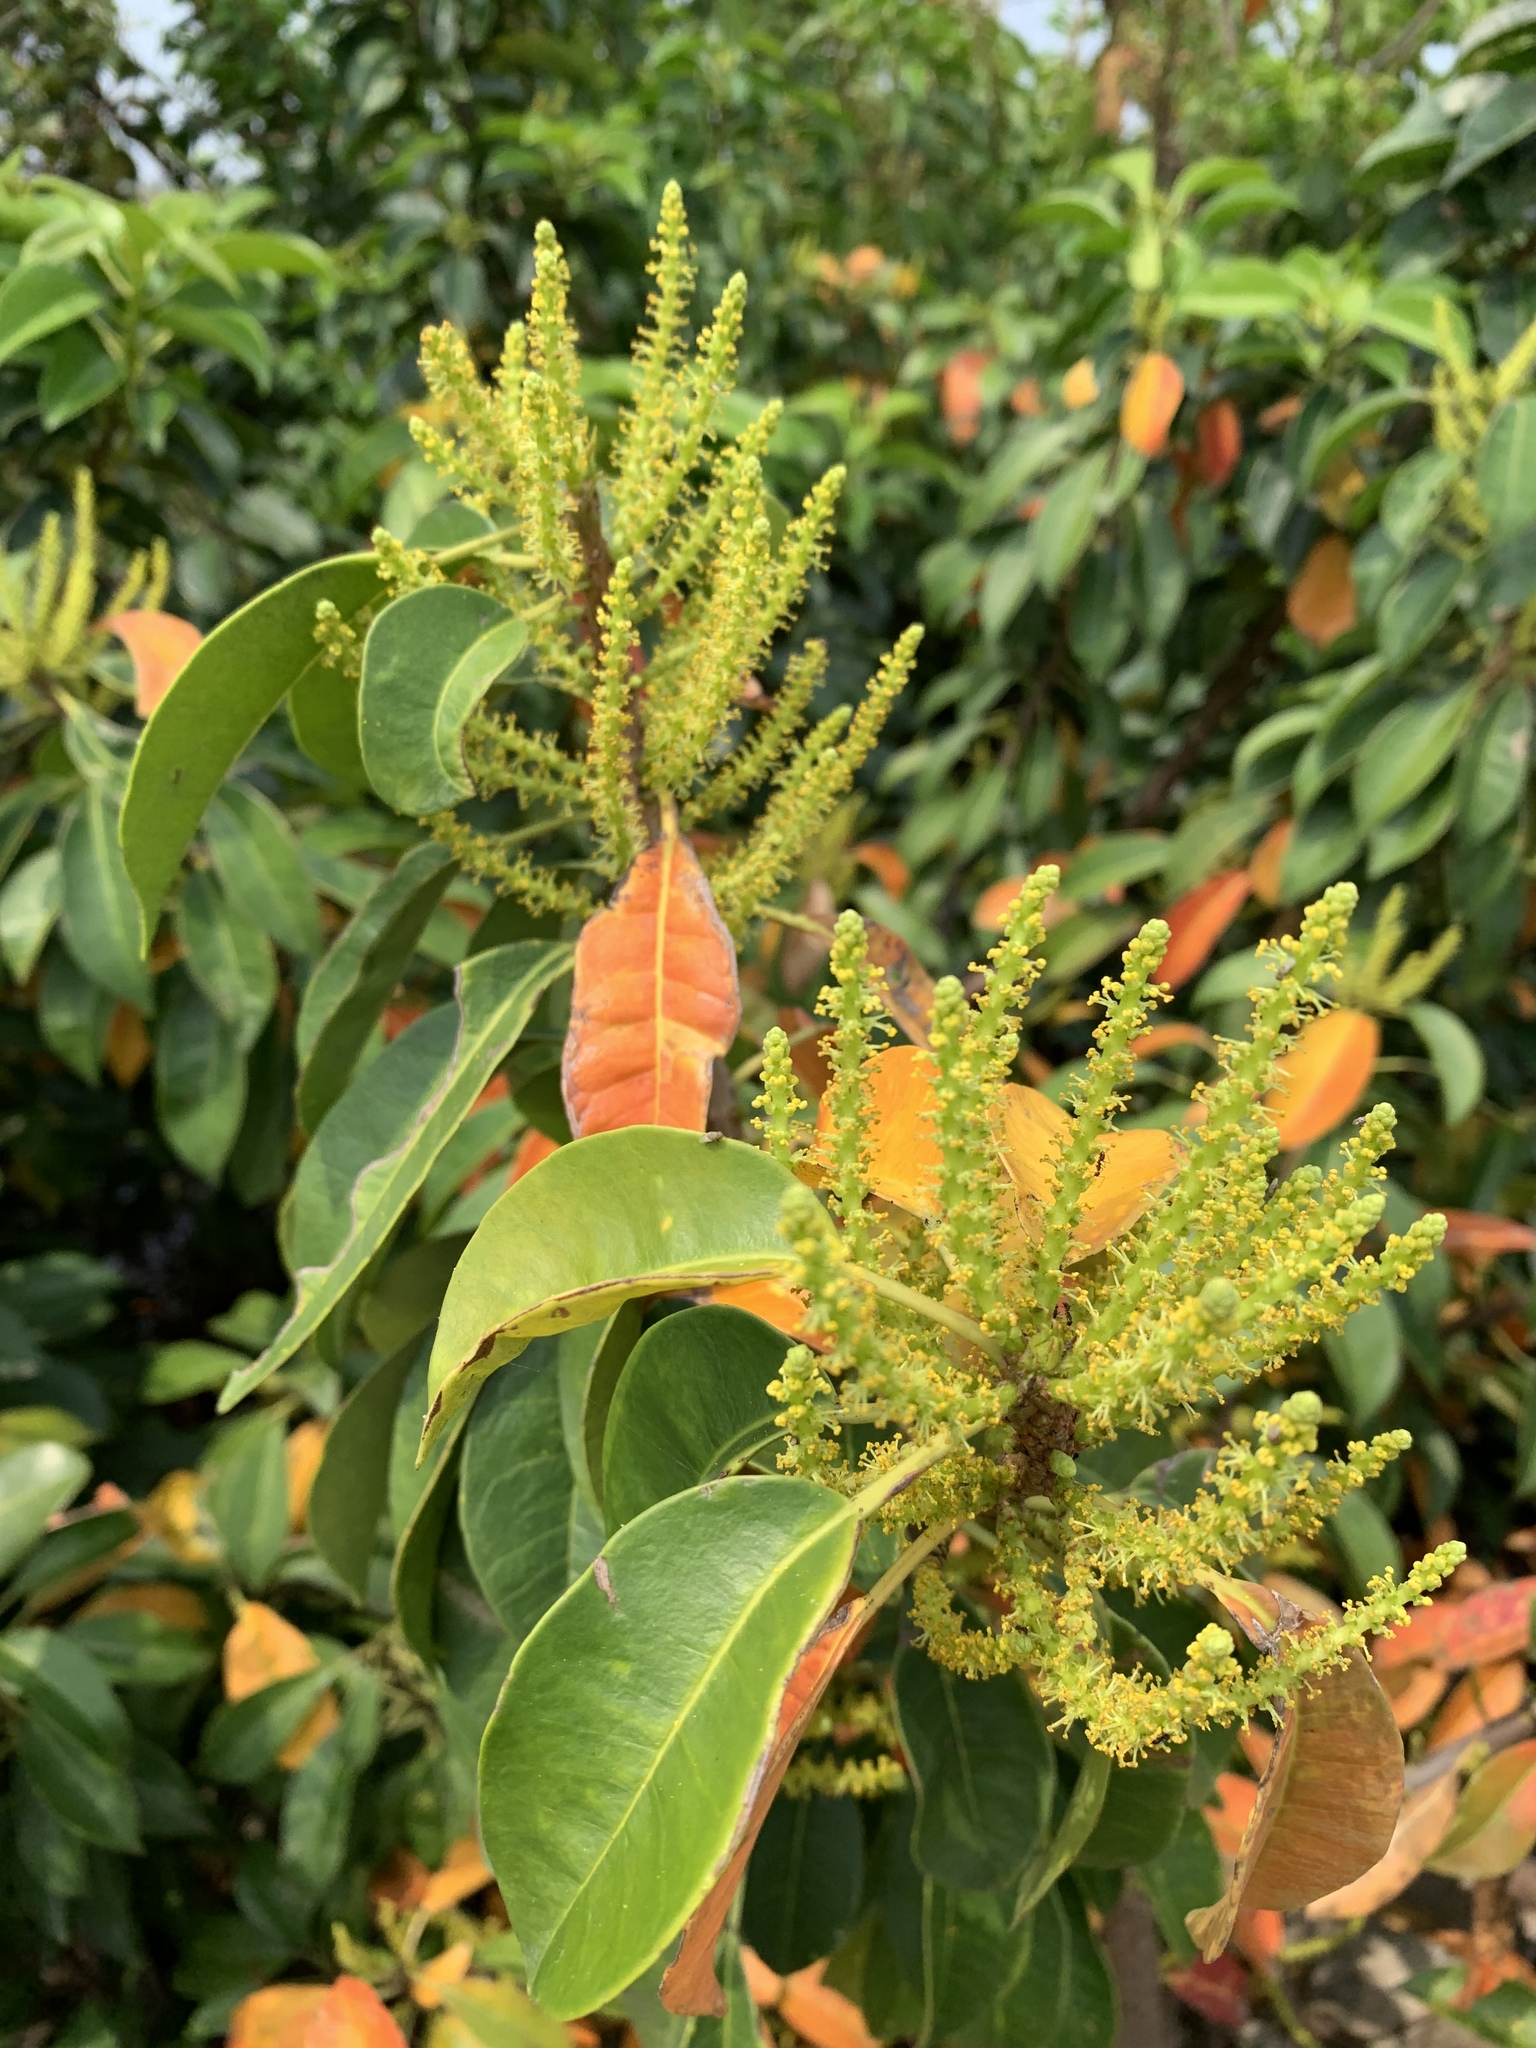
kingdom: Plantae
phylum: Tracheophyta
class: Magnoliopsida
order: Malpighiales
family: Euphorbiaceae
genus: Excoecaria
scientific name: Excoecaria agallocha
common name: River poisontree
